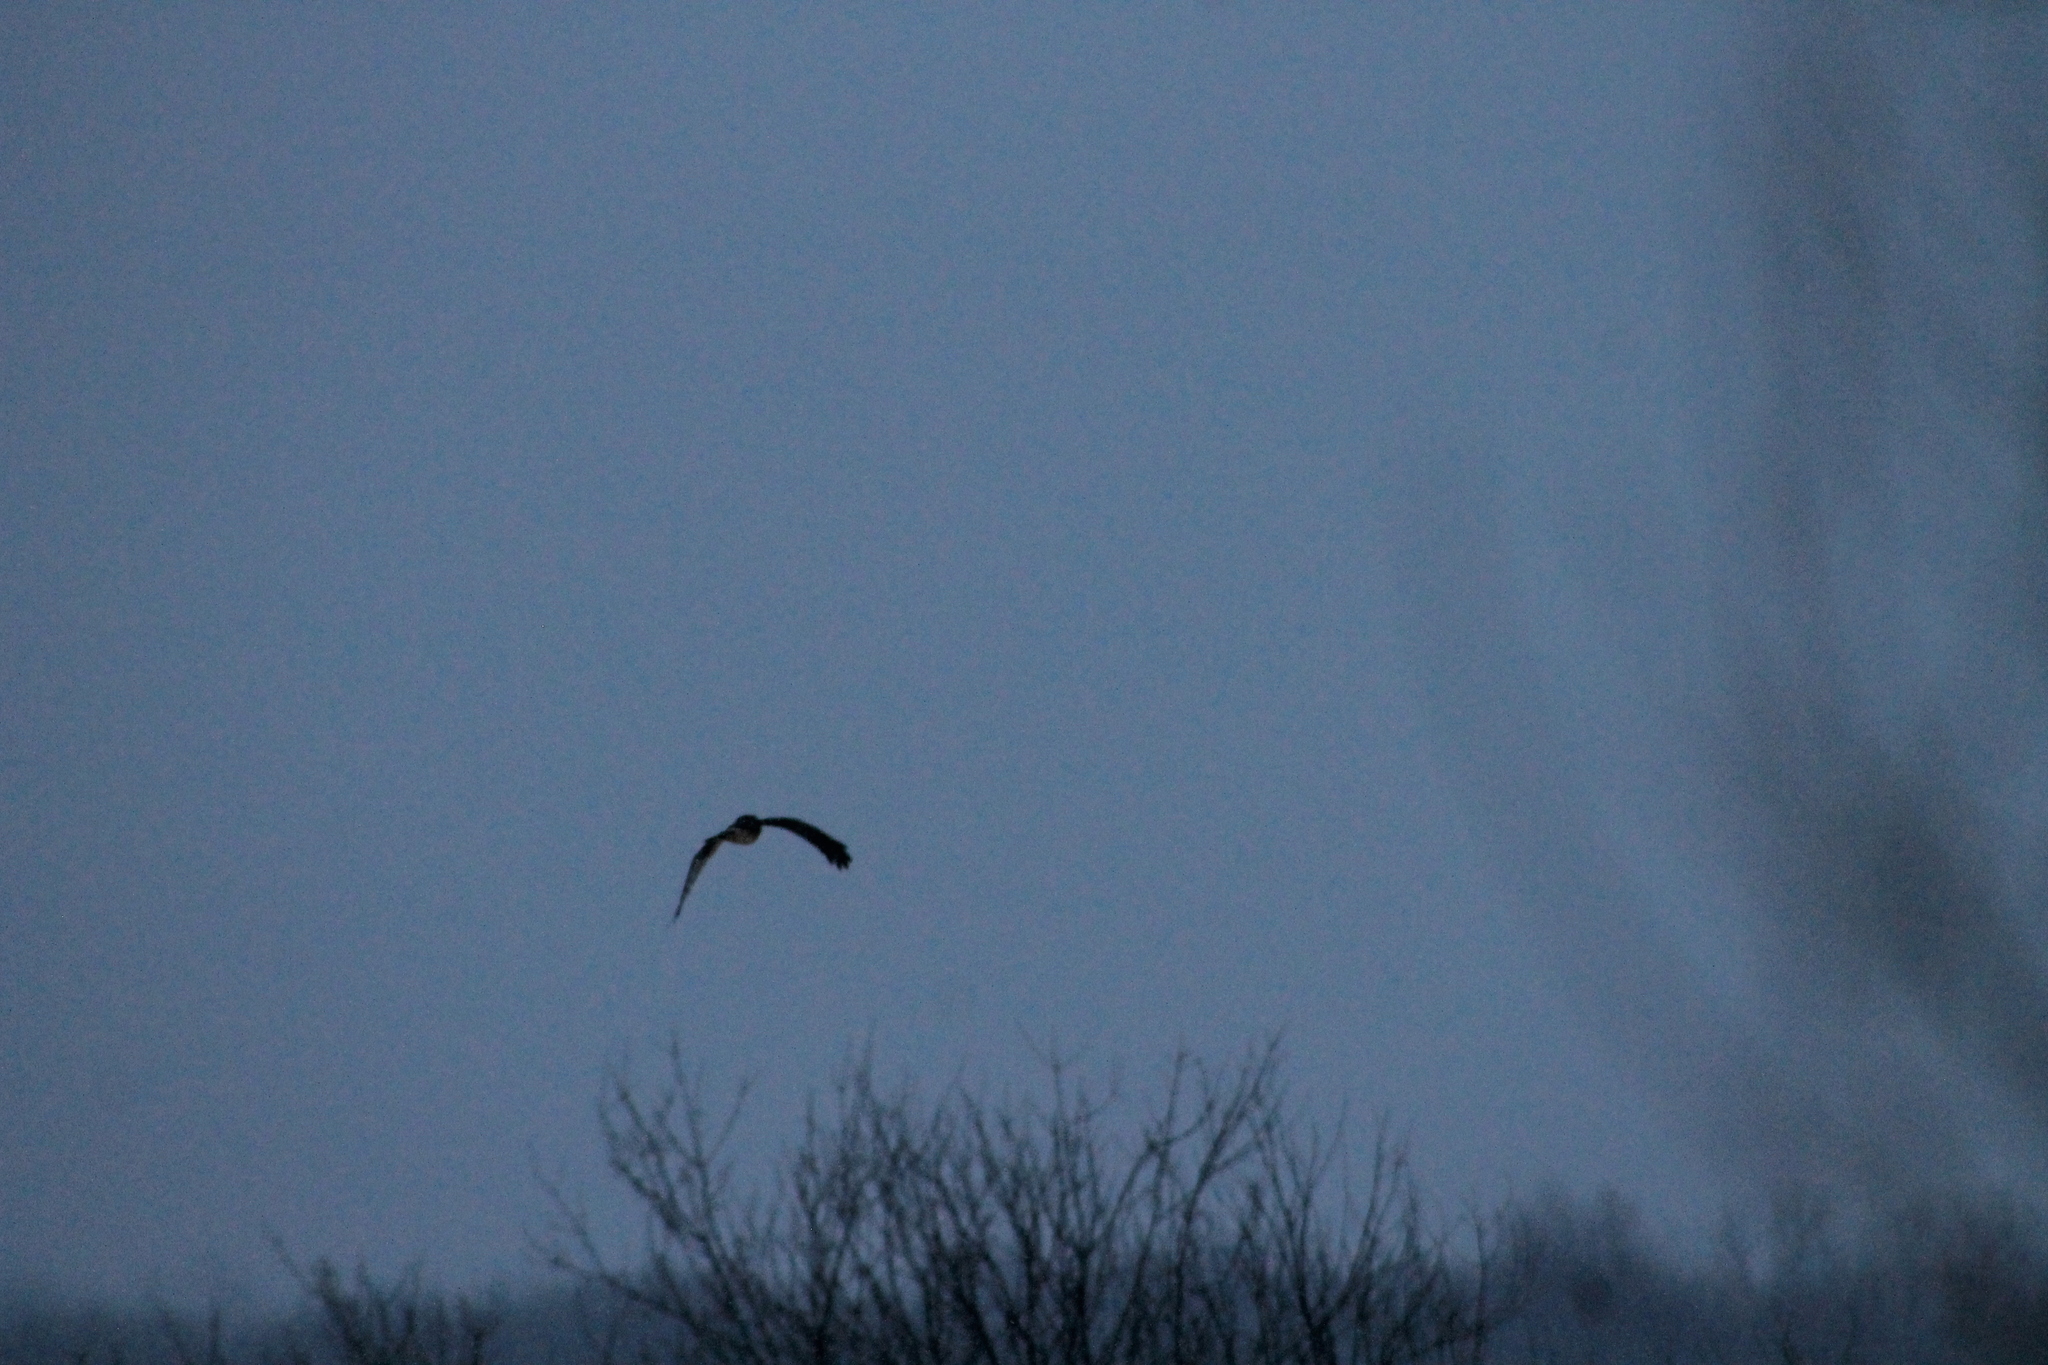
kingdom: Animalia
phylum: Chordata
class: Aves
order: Accipitriformes
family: Accipitridae
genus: Circus
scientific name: Circus cyaneus
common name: Hen harrier
